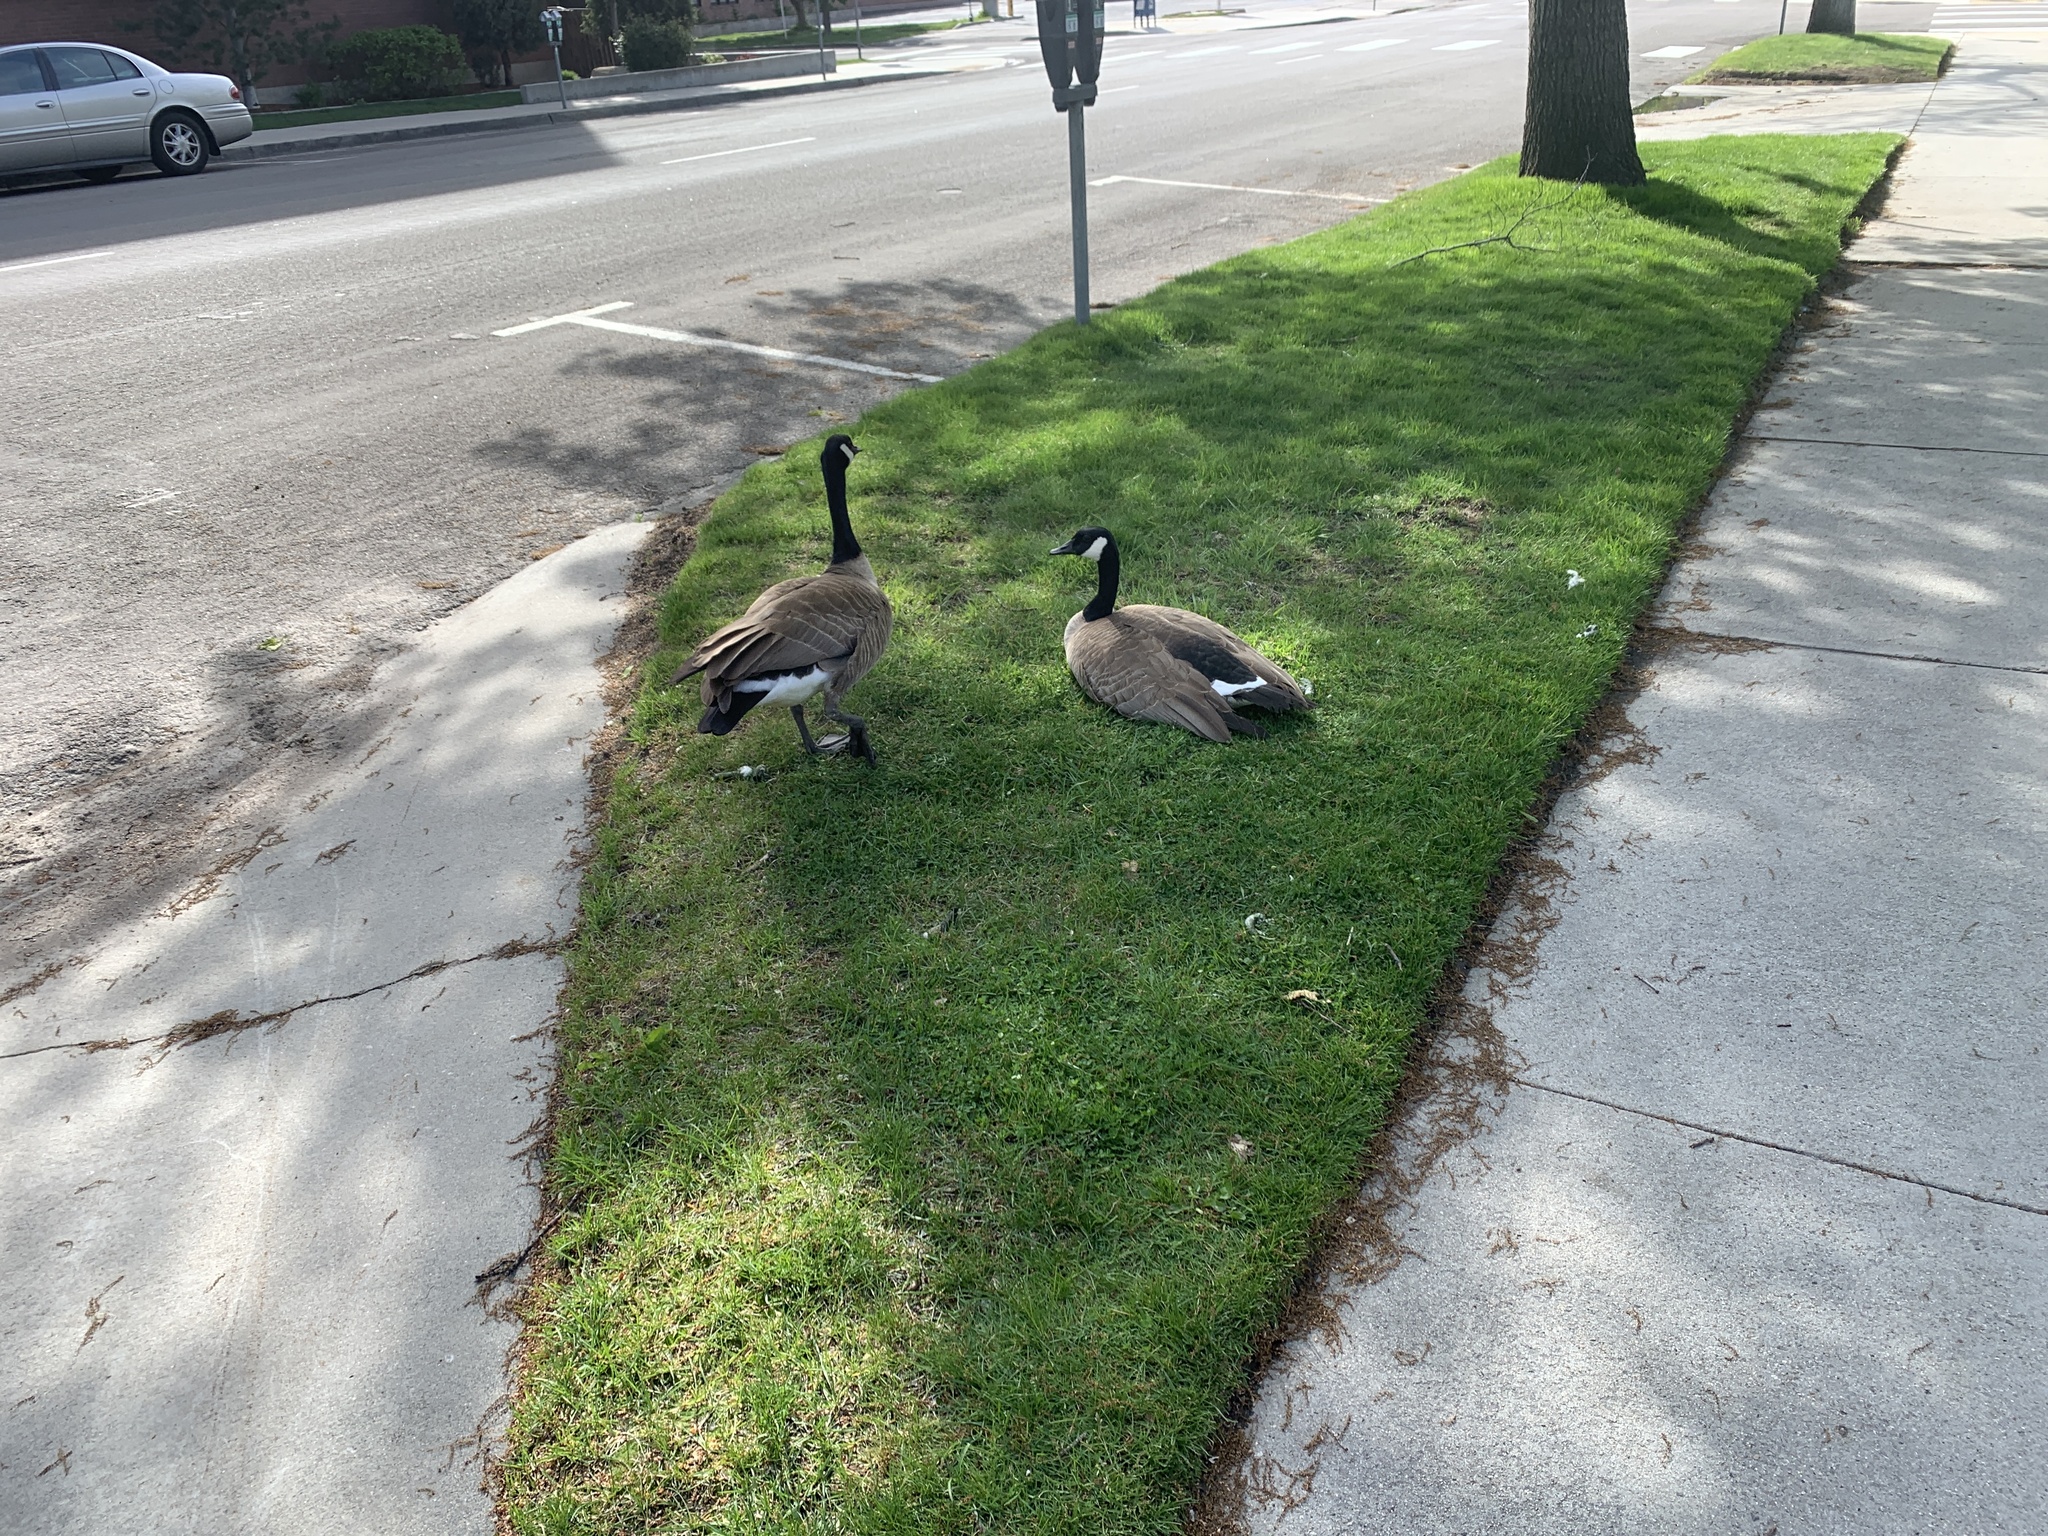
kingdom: Animalia
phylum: Chordata
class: Aves
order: Anseriformes
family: Anatidae
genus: Branta
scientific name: Branta canadensis
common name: Canada goose
